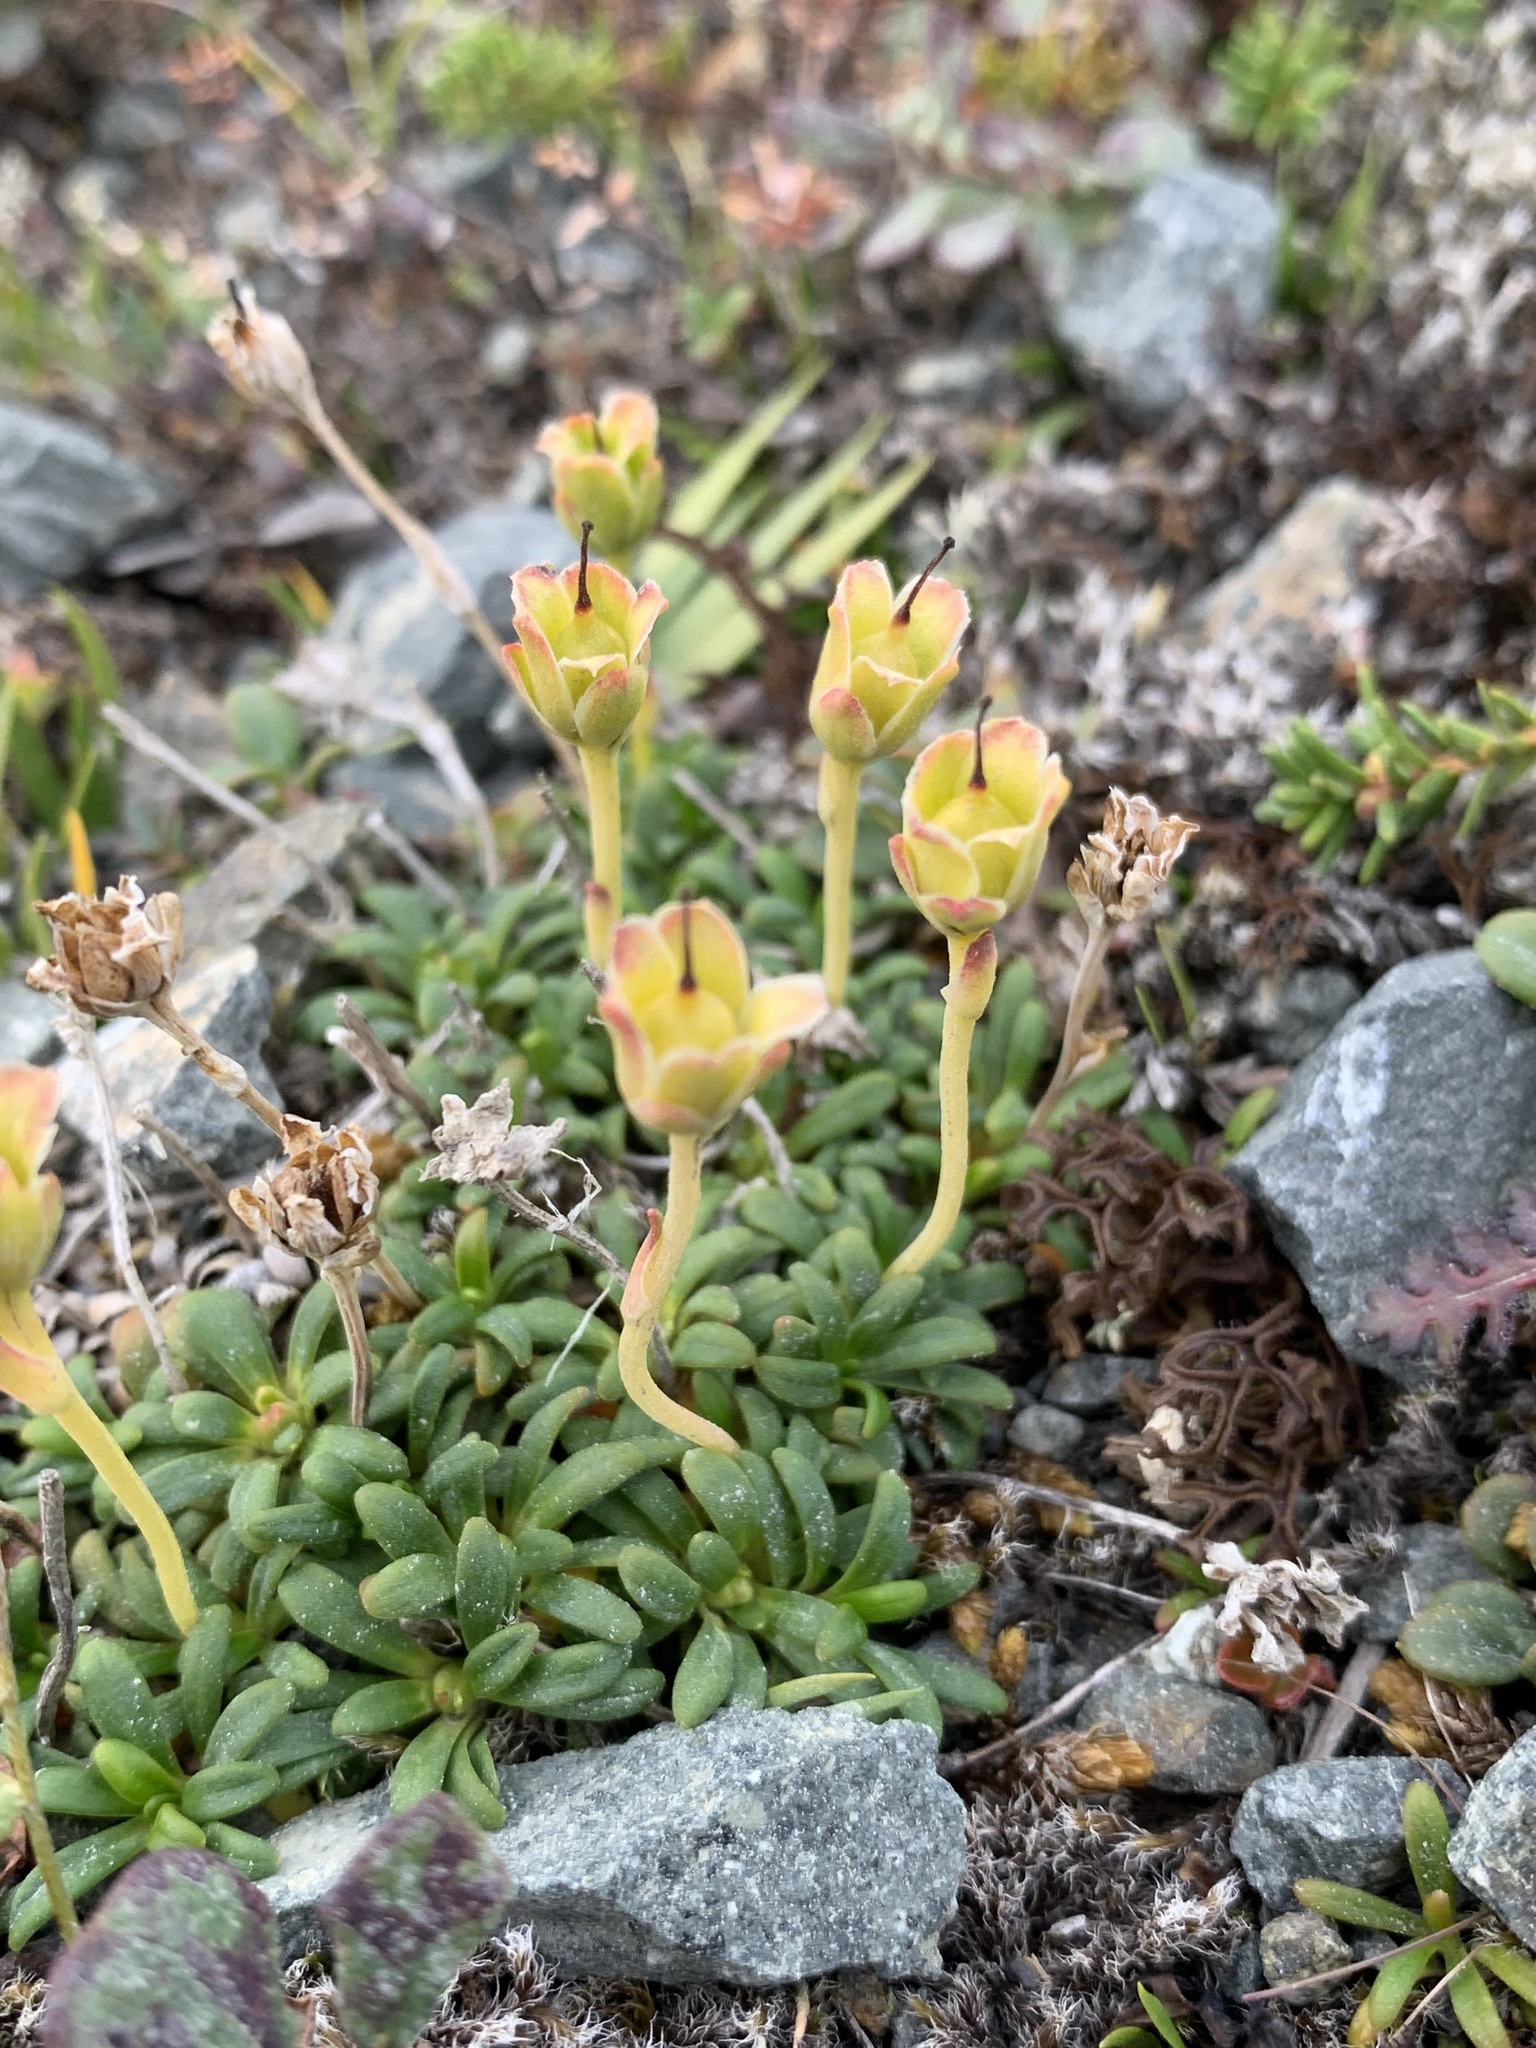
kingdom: Plantae
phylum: Tracheophyta
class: Magnoliopsida
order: Ericales
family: Diapensiaceae
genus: Diapensia
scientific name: Diapensia lapponica
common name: Diapensia
